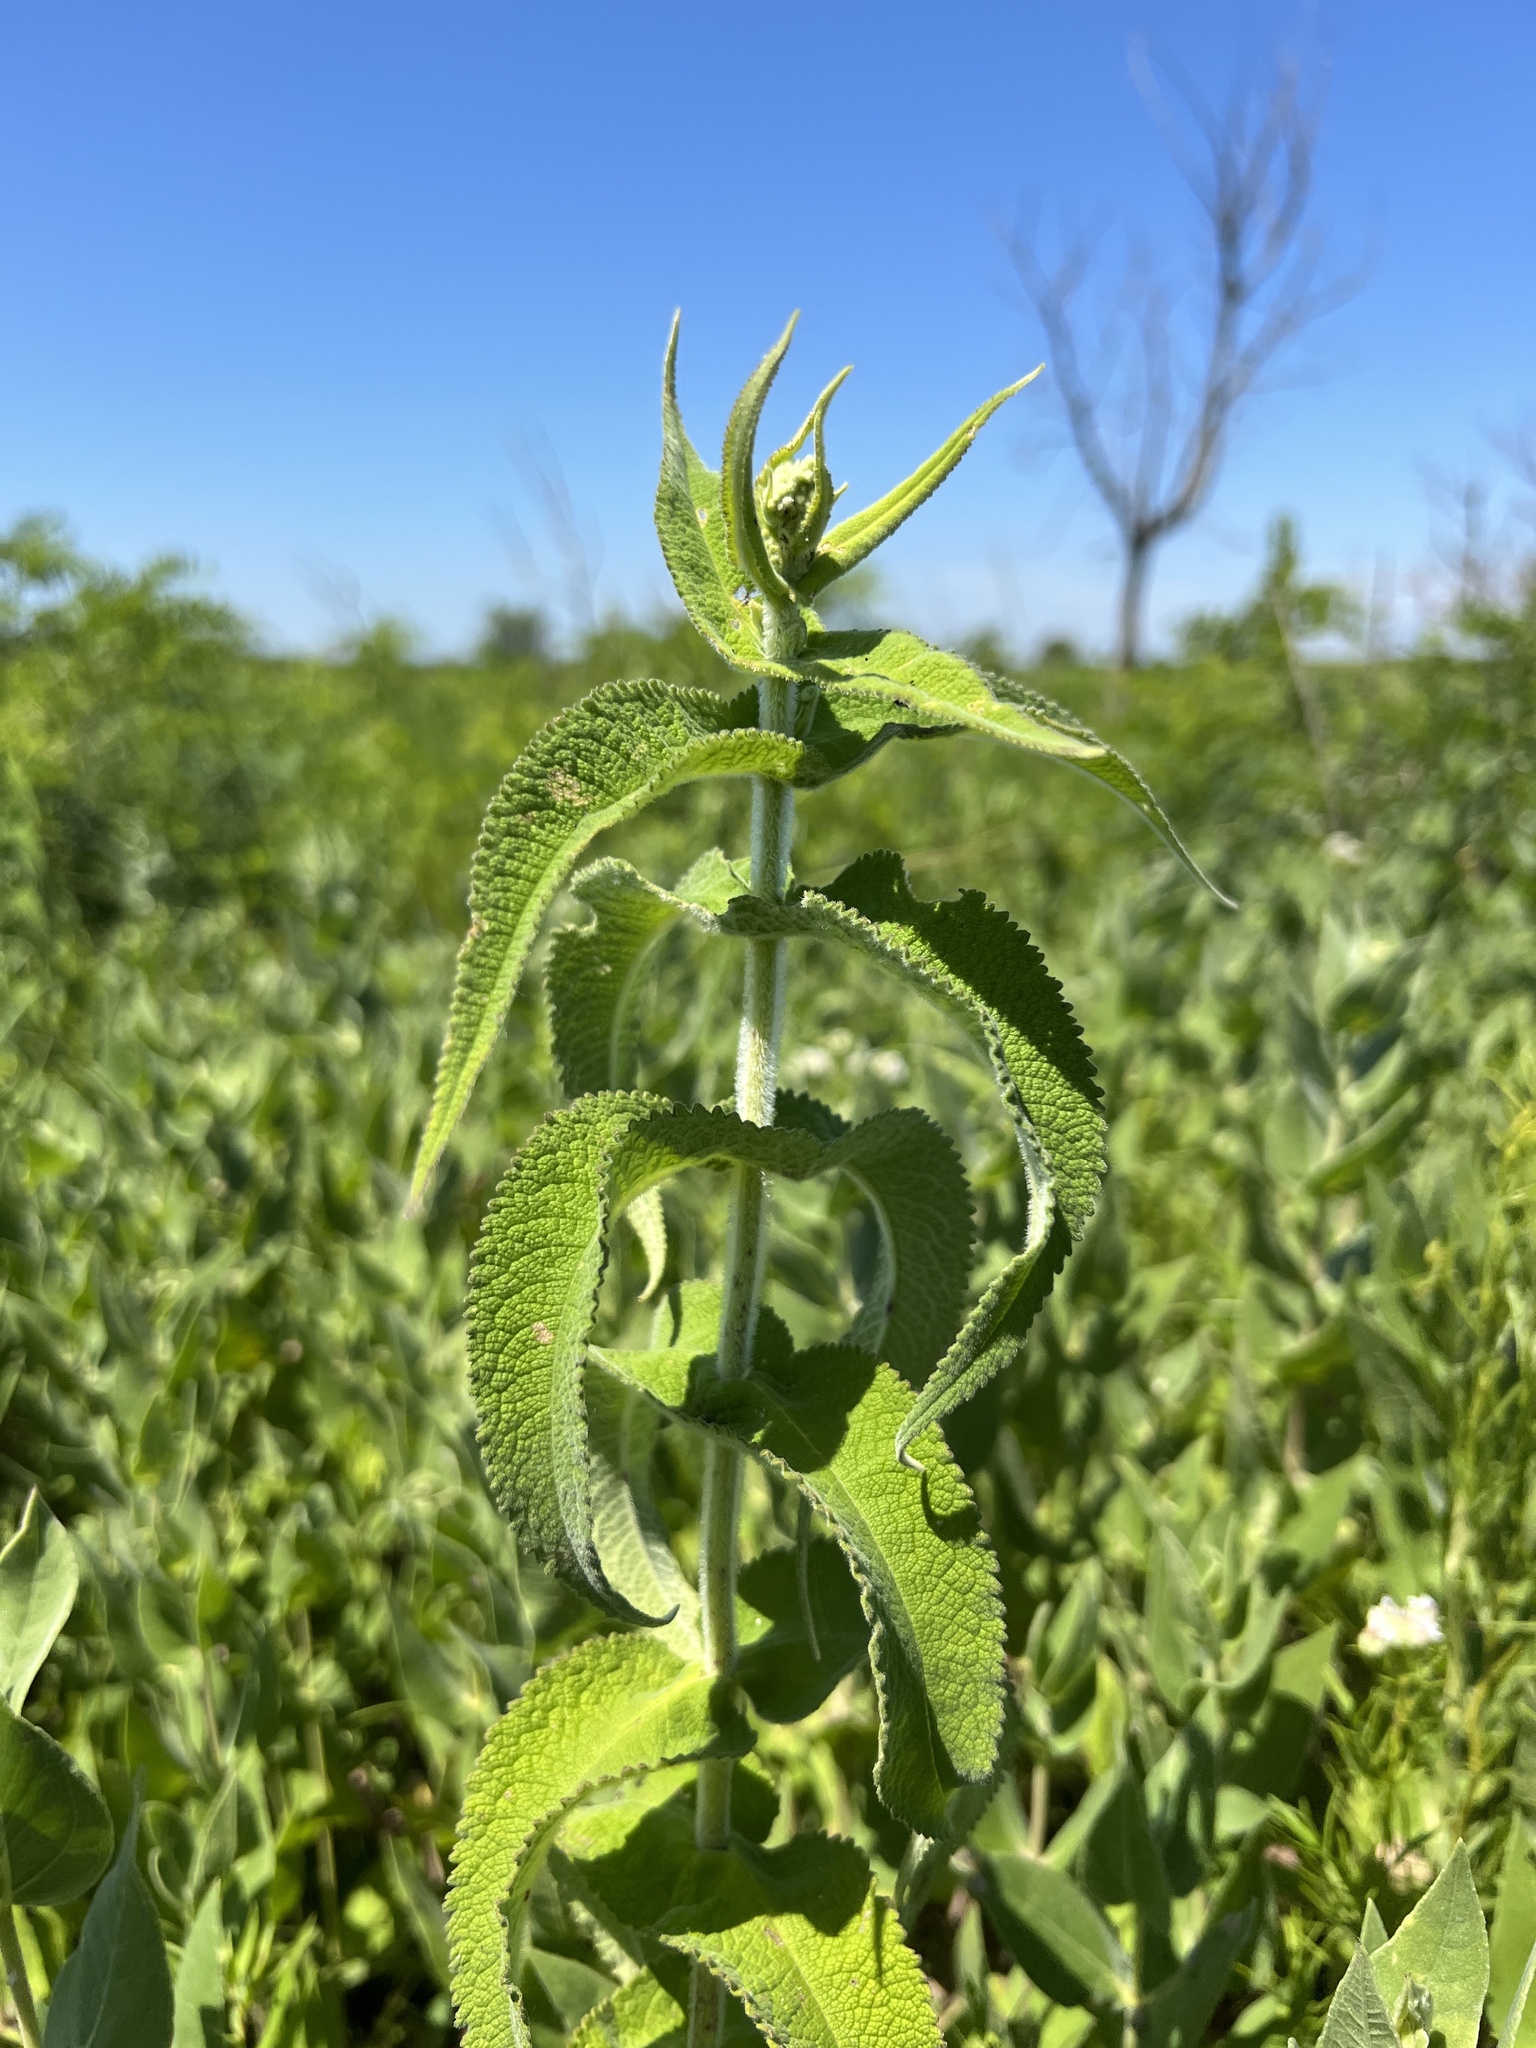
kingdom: Plantae
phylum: Tracheophyta
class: Magnoliopsida
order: Asterales
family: Asteraceae
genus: Eupatorium
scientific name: Eupatorium perfoliatum
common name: Boneset
